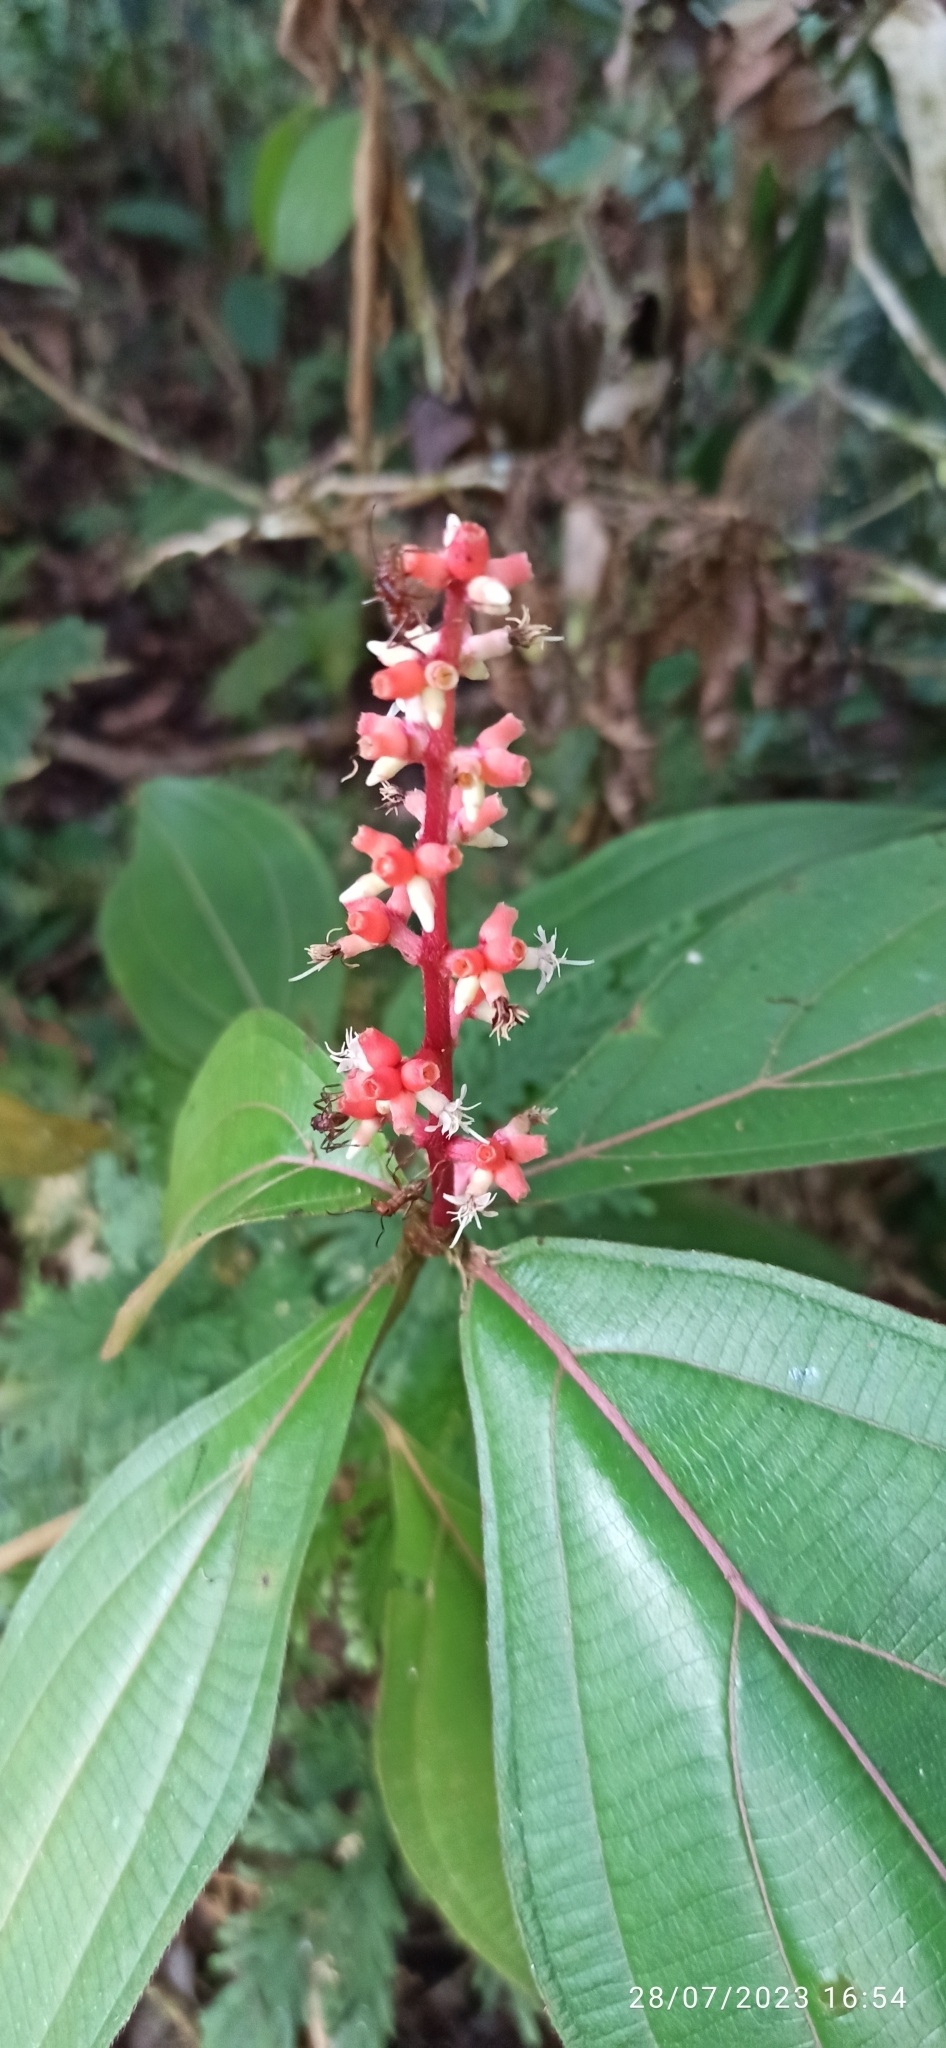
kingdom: Plantae
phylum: Tracheophyta
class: Magnoliopsida
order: Myrtales
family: Melastomataceae
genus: Miconia
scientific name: Miconia nervosa
